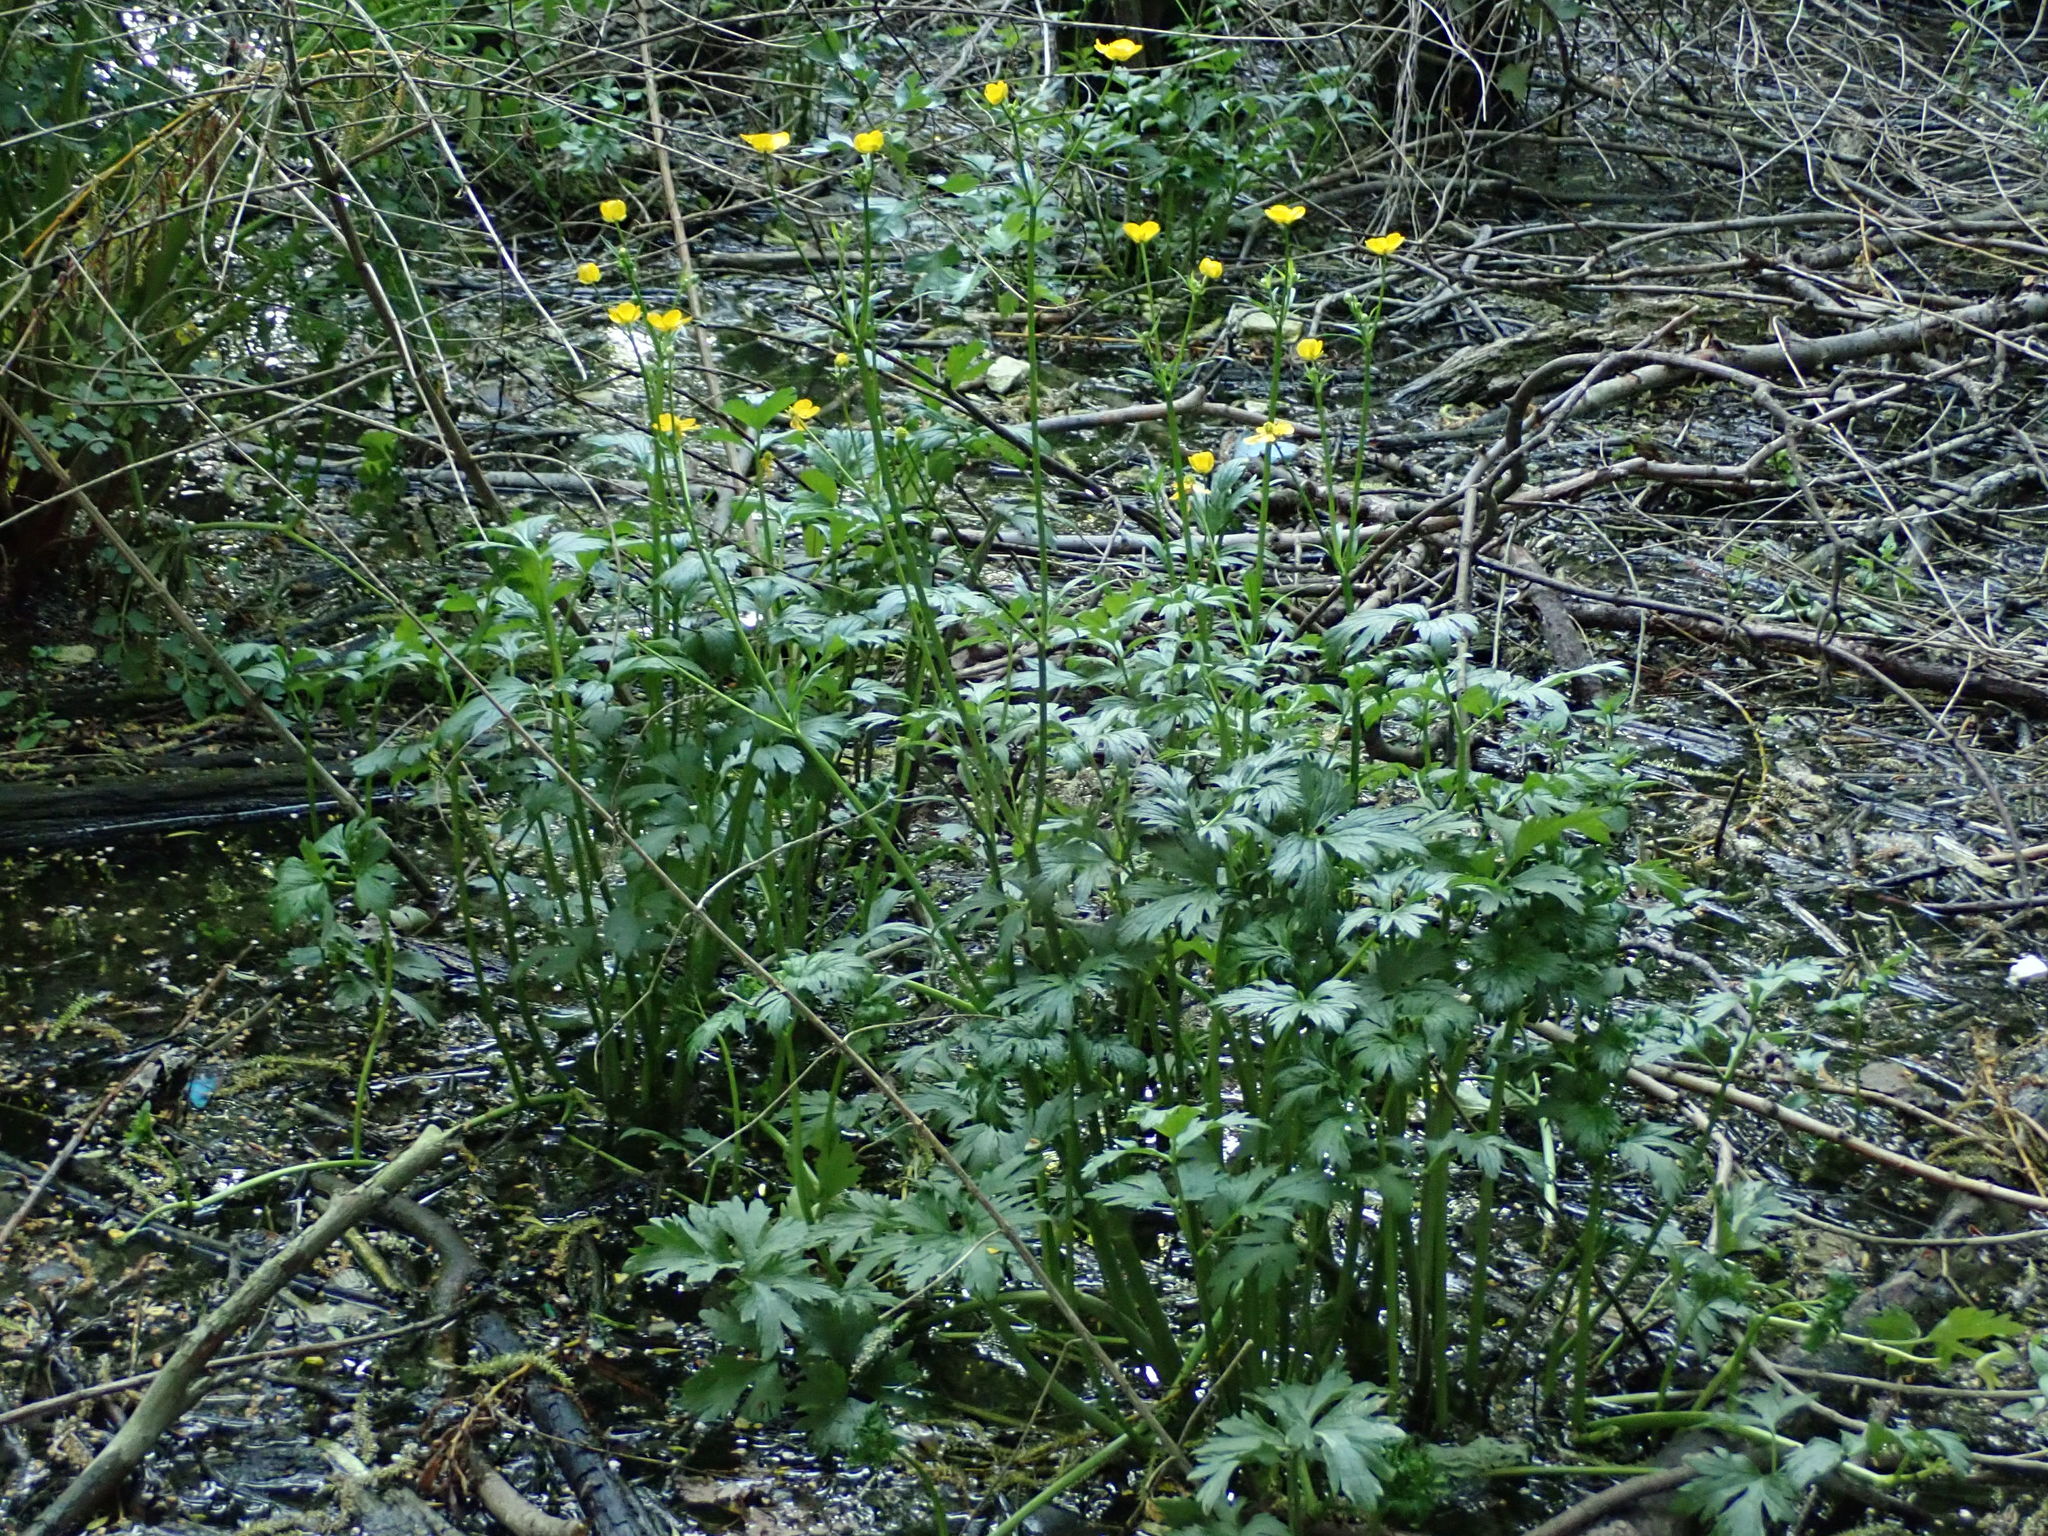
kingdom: Plantae
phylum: Tracheophyta
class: Magnoliopsida
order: Ranunculales
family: Ranunculaceae
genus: Ranunculus
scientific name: Ranunculus acris
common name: Meadow buttercup
